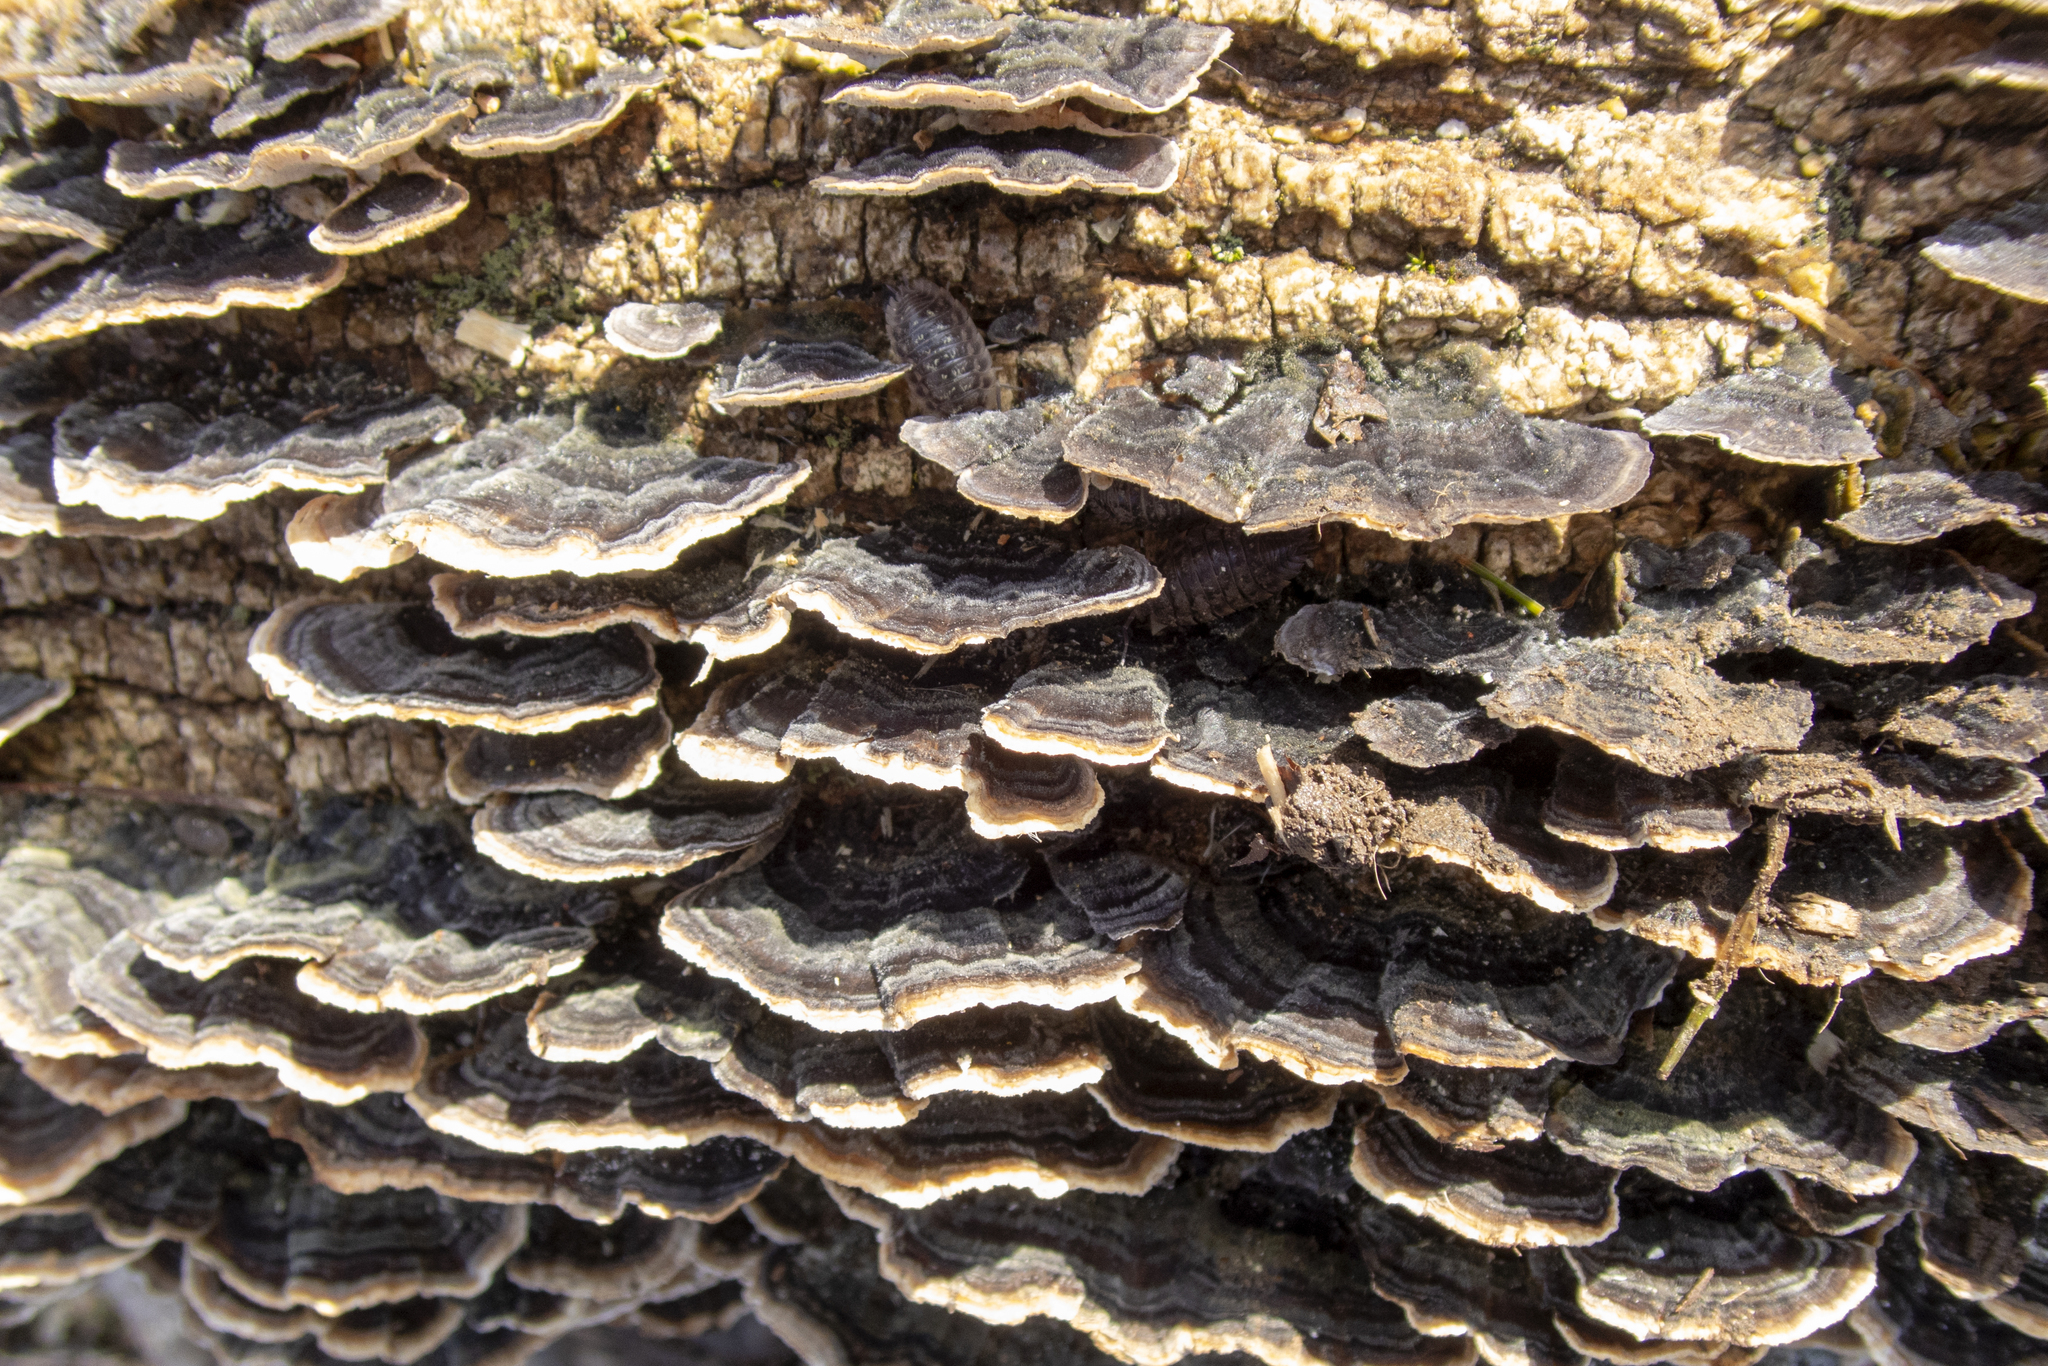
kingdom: Fungi
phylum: Basidiomycota
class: Agaricomycetes
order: Polyporales
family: Polyporaceae
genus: Trametes
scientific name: Trametes versicolor
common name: Turkeytail
